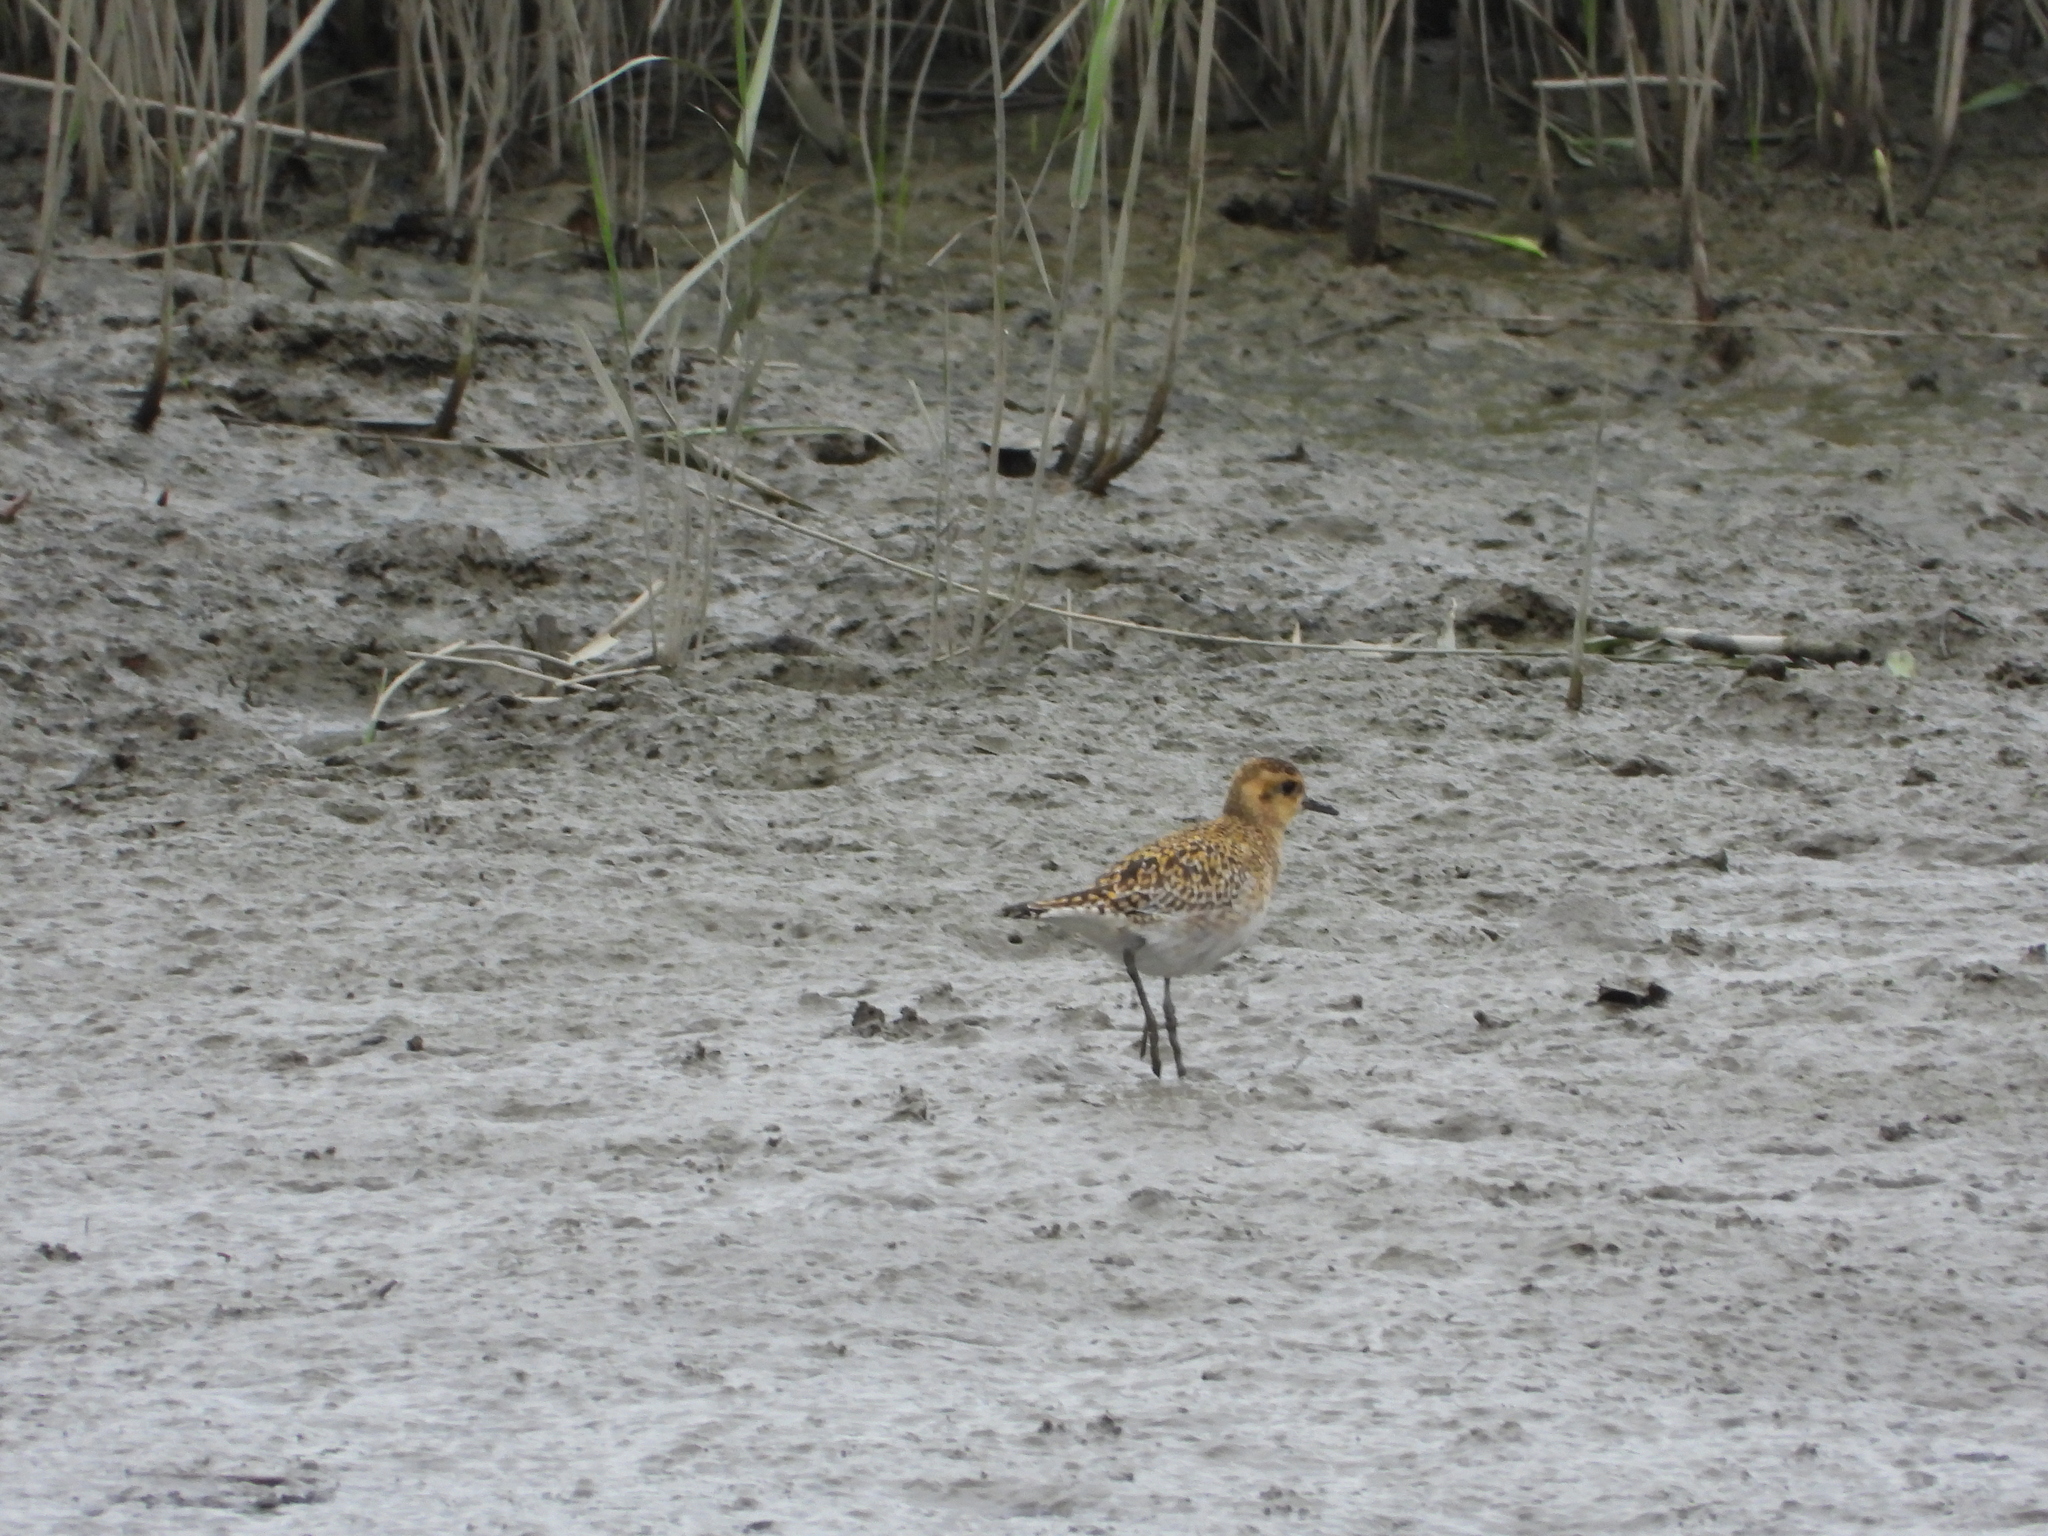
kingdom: Animalia
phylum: Chordata
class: Aves
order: Charadriiformes
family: Charadriidae
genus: Pluvialis
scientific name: Pluvialis fulva
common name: Pacific golden plover
